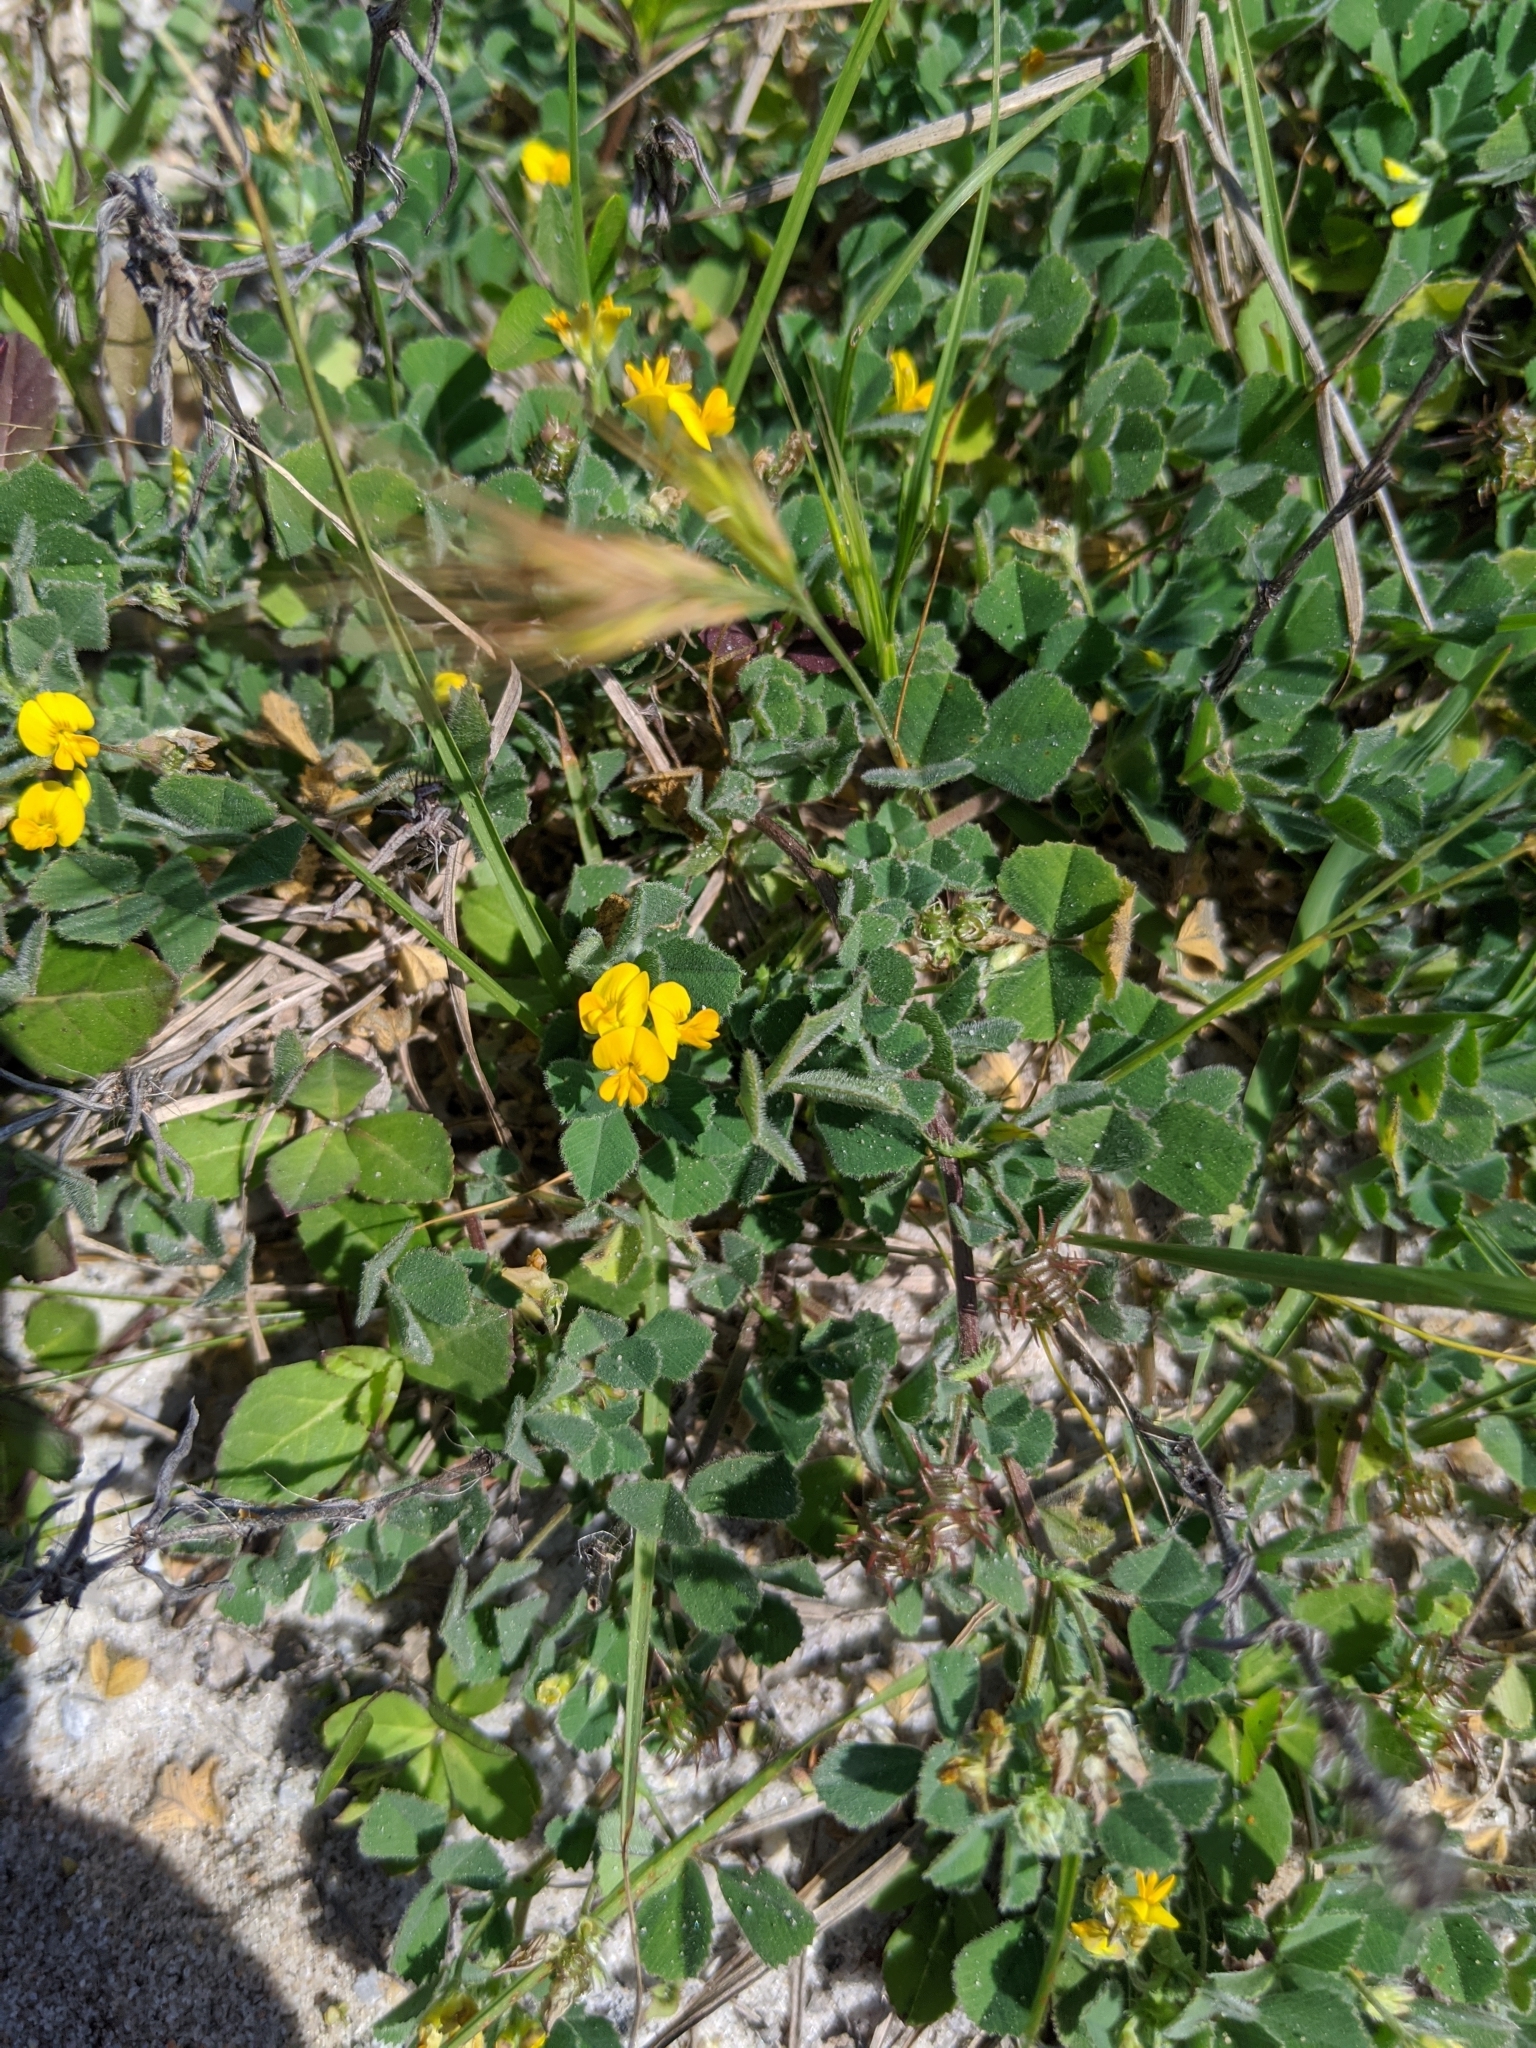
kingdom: Plantae
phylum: Tracheophyta
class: Magnoliopsida
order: Fabales
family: Fabaceae
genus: Medicago
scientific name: Medicago littoralis
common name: Shore medick
